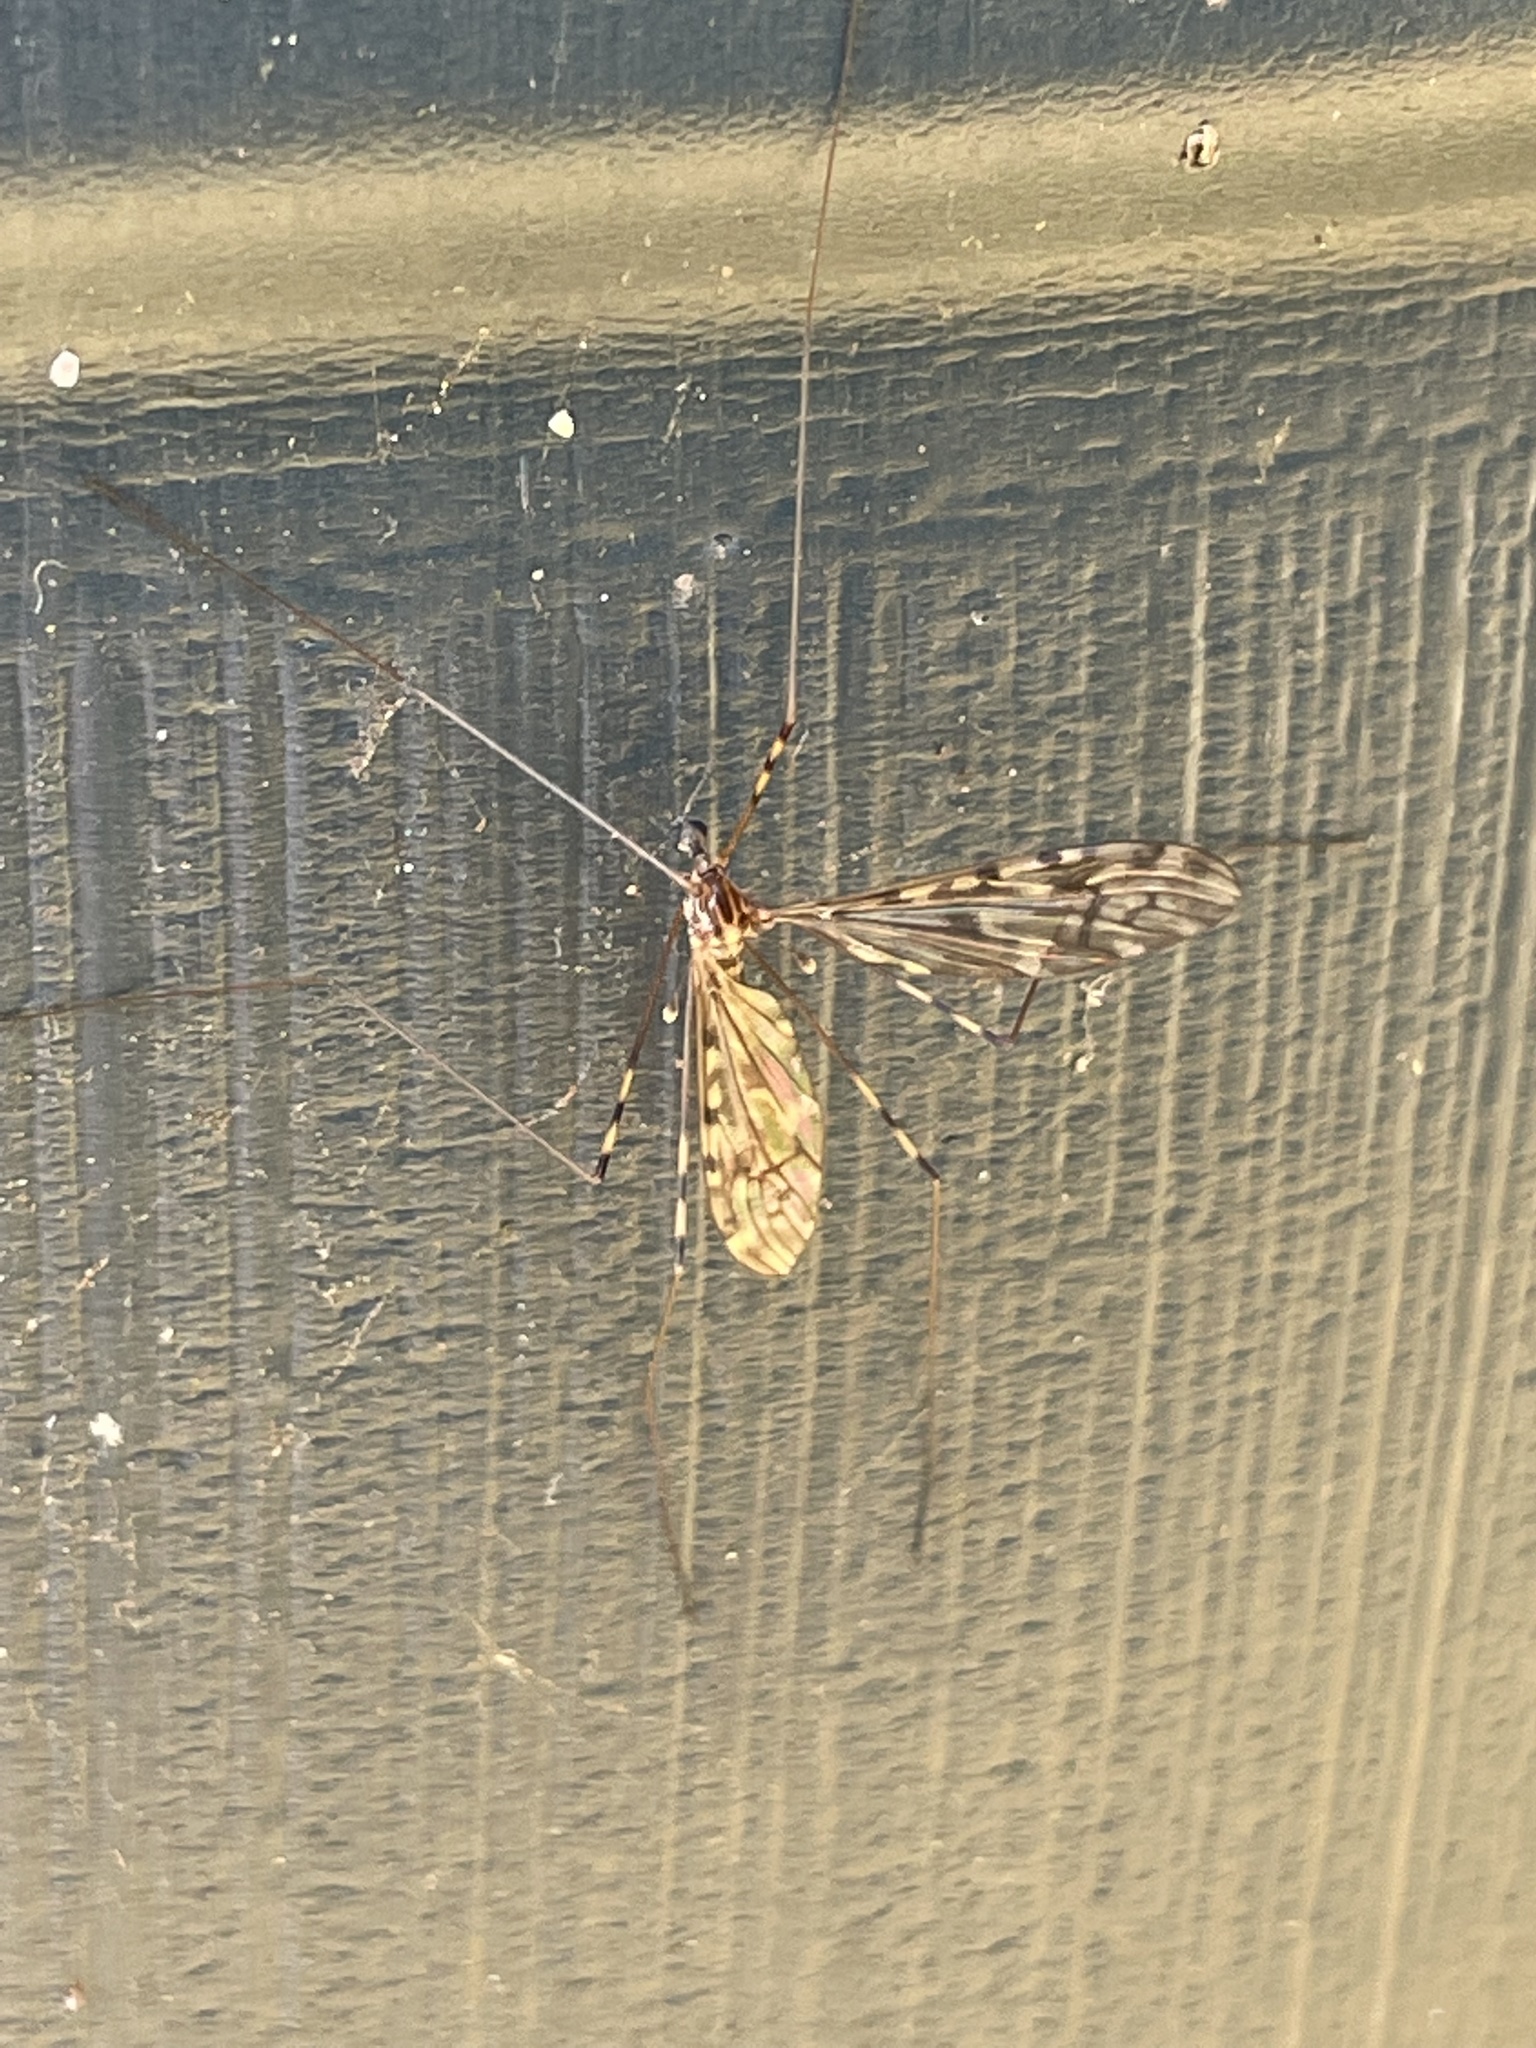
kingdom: Animalia
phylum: Arthropoda
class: Insecta
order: Diptera
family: Limoniidae
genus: Limonia
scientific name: Limonia nubeculosa
